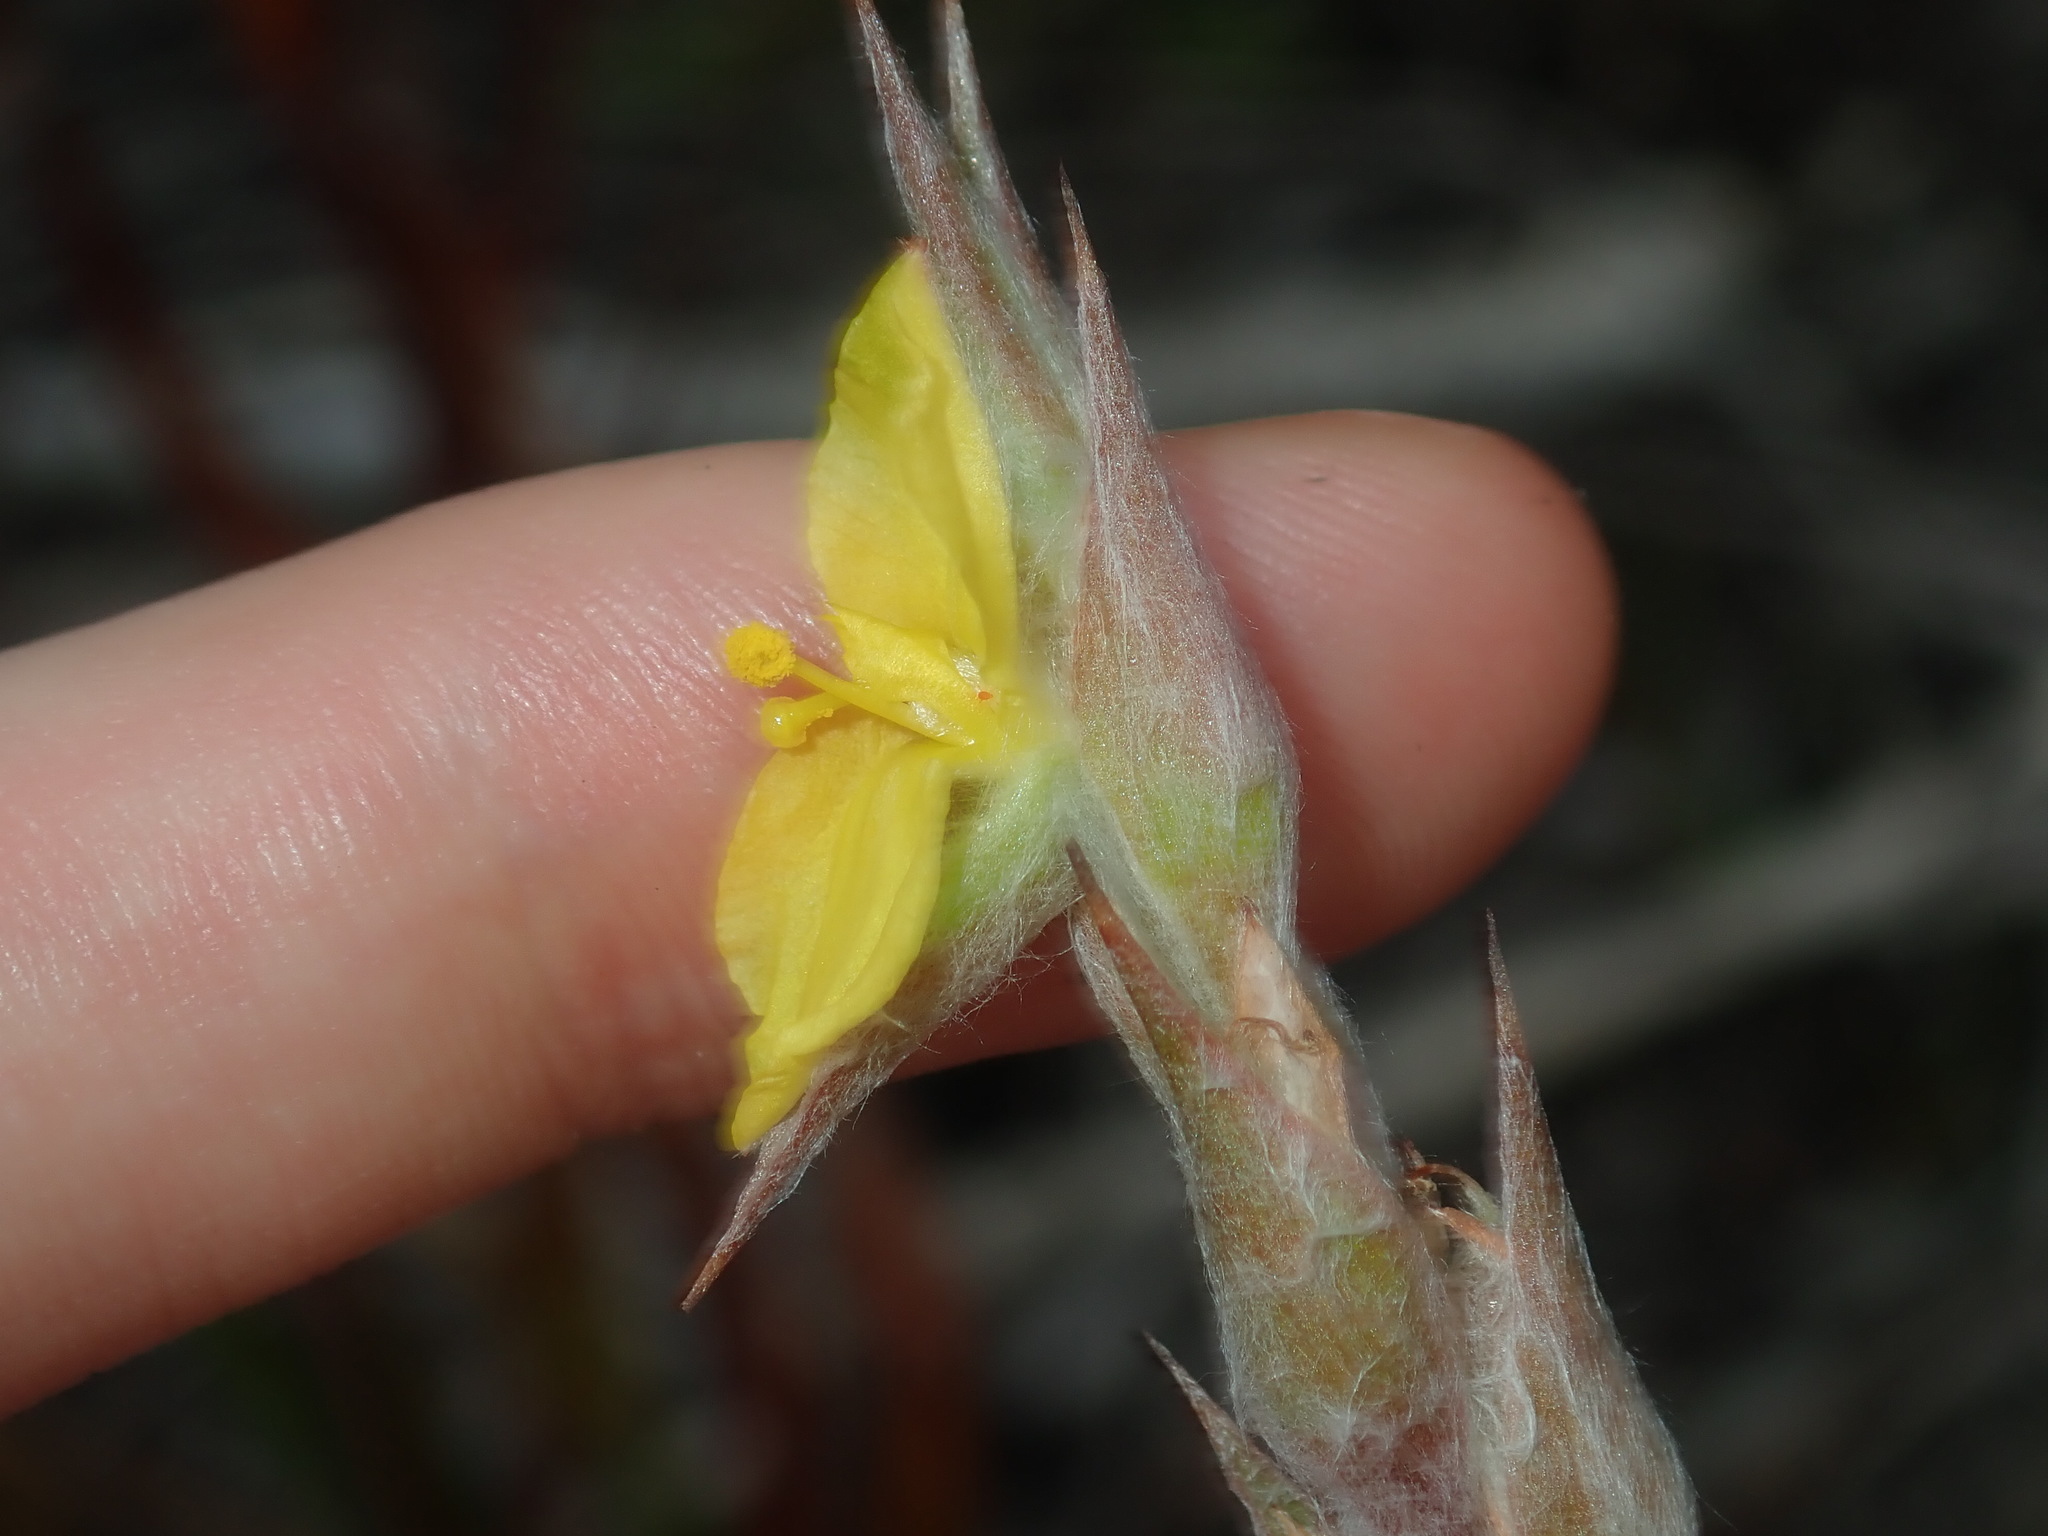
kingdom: Plantae
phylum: Tracheophyta
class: Liliopsida
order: Commelinales
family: Philydraceae
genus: Philydrum
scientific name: Philydrum lanuginosum
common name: Woolly frog's mouth
